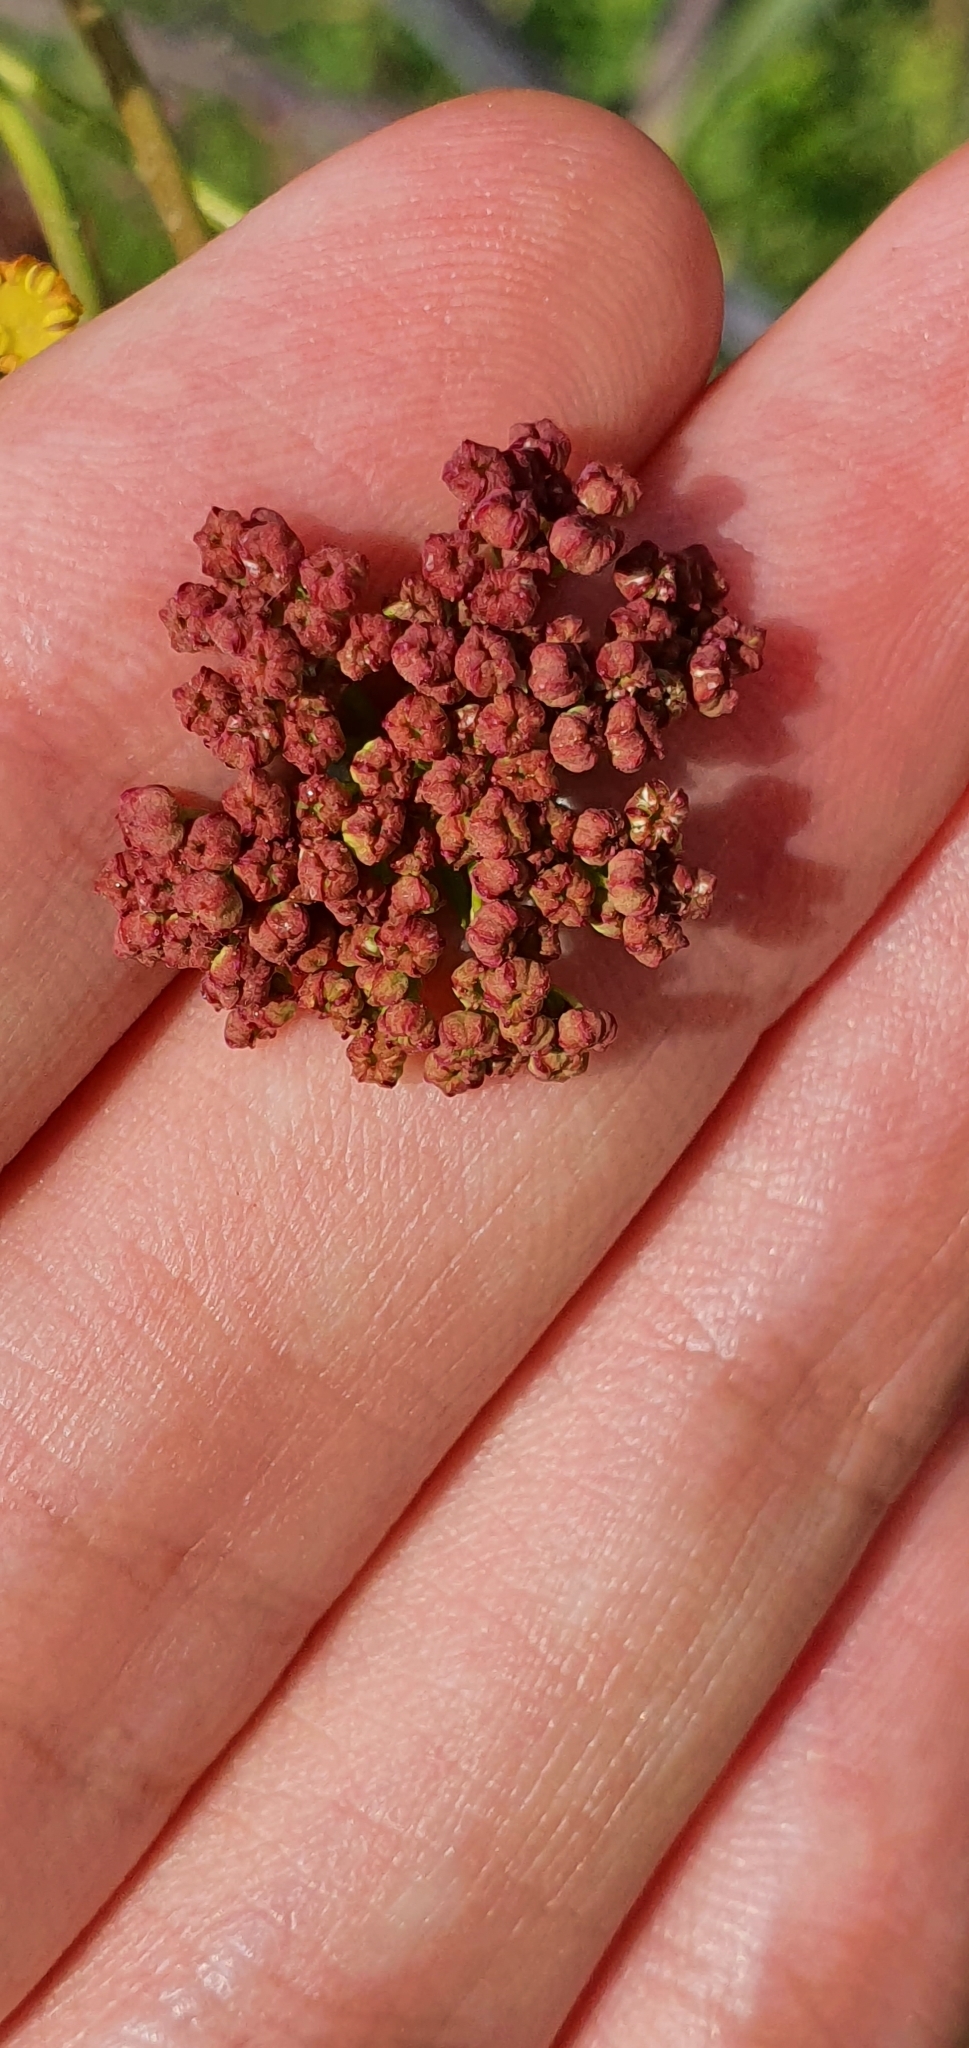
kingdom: Plantae
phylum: Tracheophyta
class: Magnoliopsida
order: Apiales
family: Apiaceae
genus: Ferula
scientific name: Ferula communis
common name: Giant fennel
